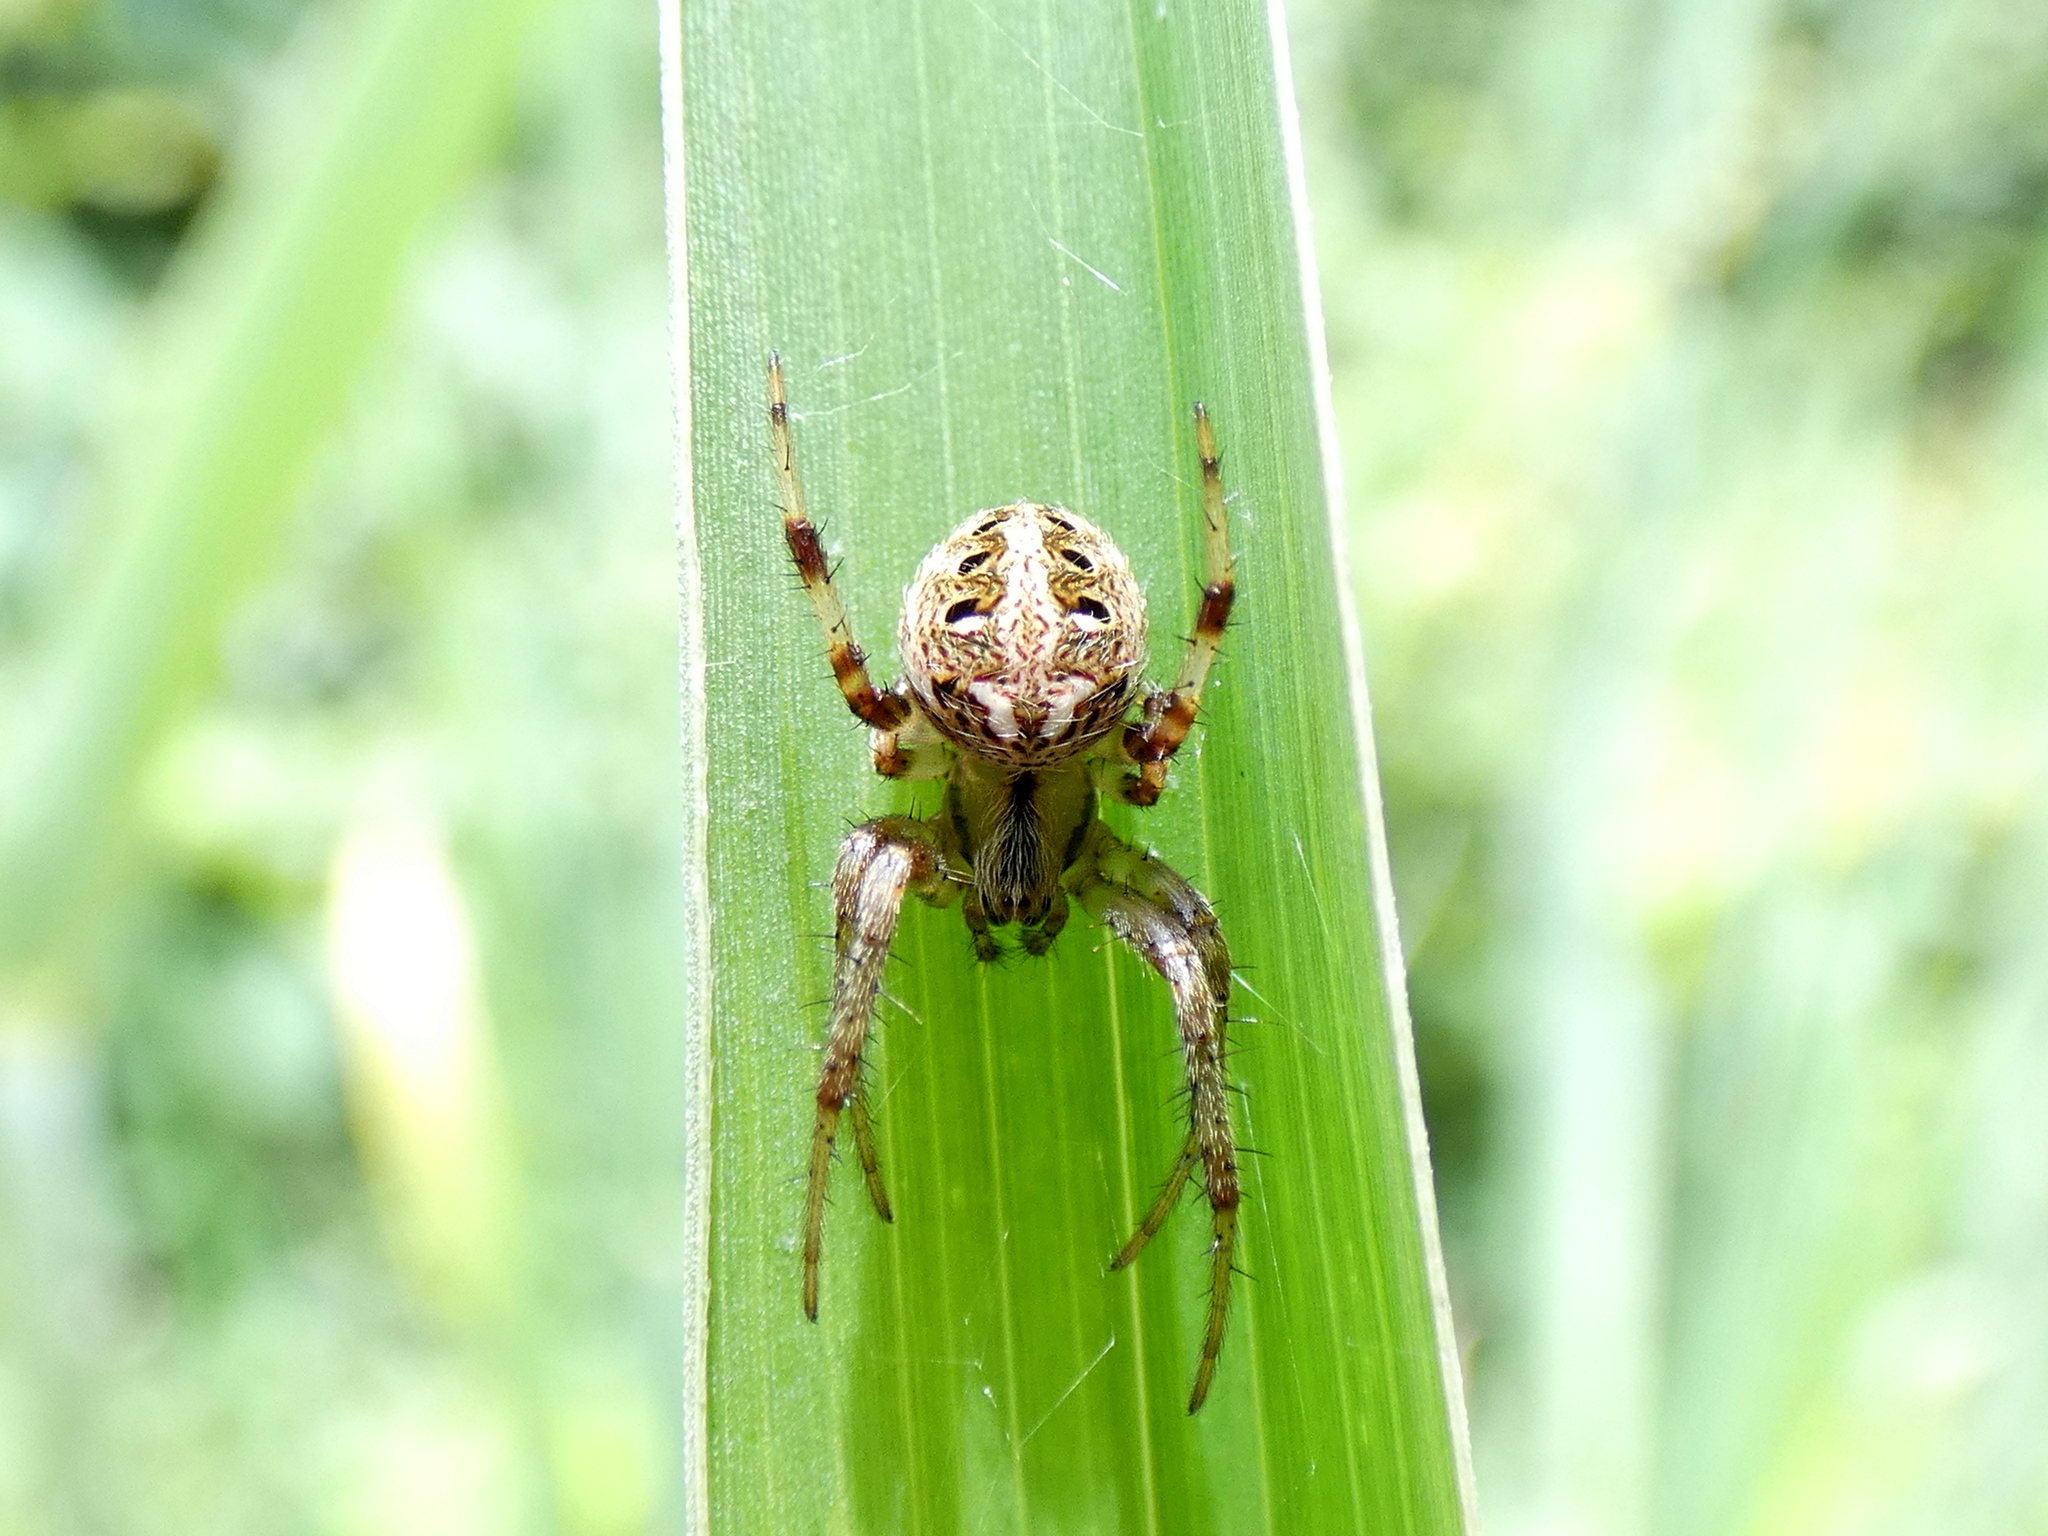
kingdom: Animalia
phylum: Arthropoda
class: Arachnida
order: Araneae
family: Araneidae
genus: Neoscona
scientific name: Neoscona arabesca
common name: Orb weavers
